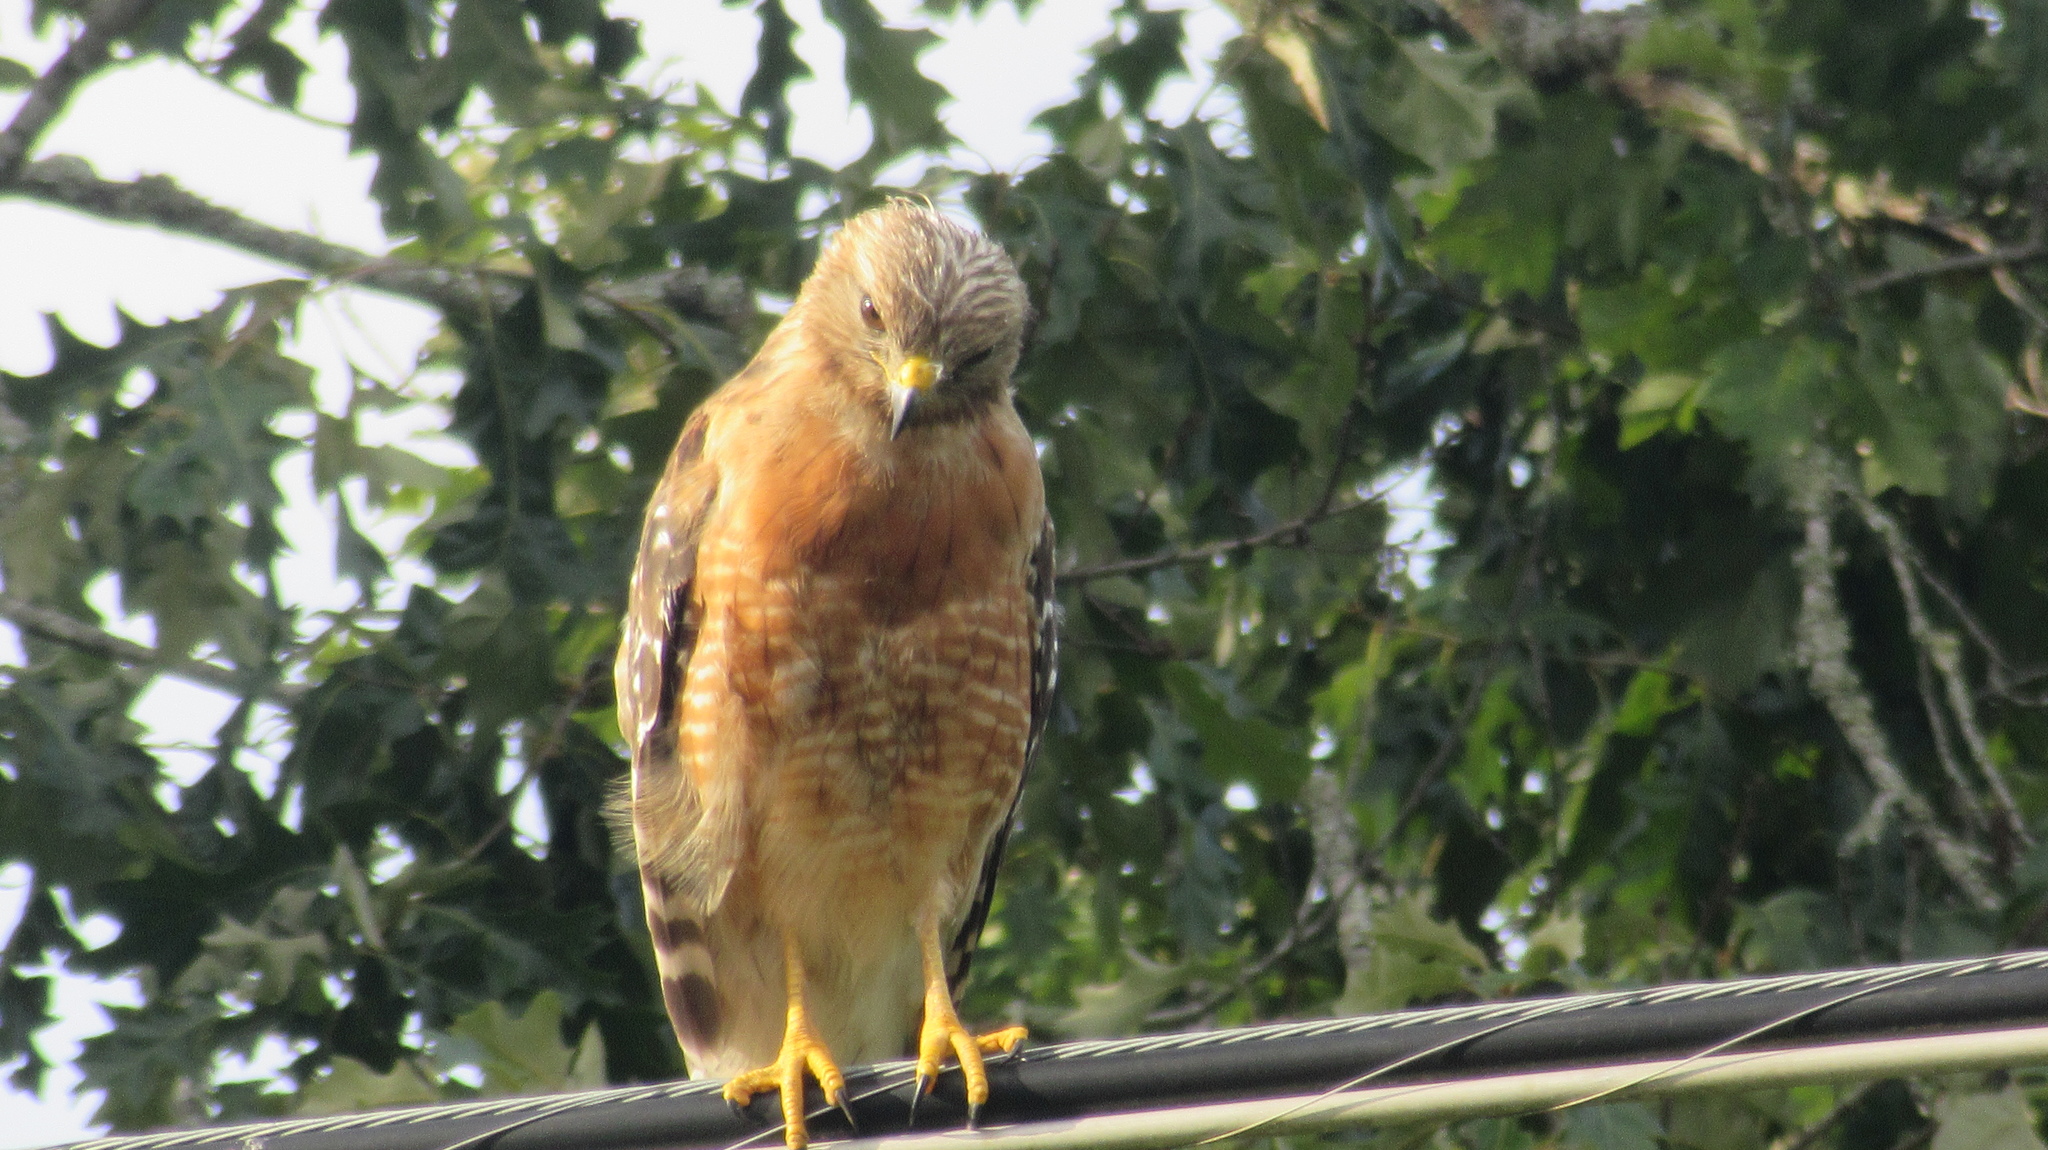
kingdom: Animalia
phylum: Chordata
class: Aves
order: Accipitriformes
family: Accipitridae
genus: Buteo
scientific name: Buteo lineatus
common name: Red-shouldered hawk
